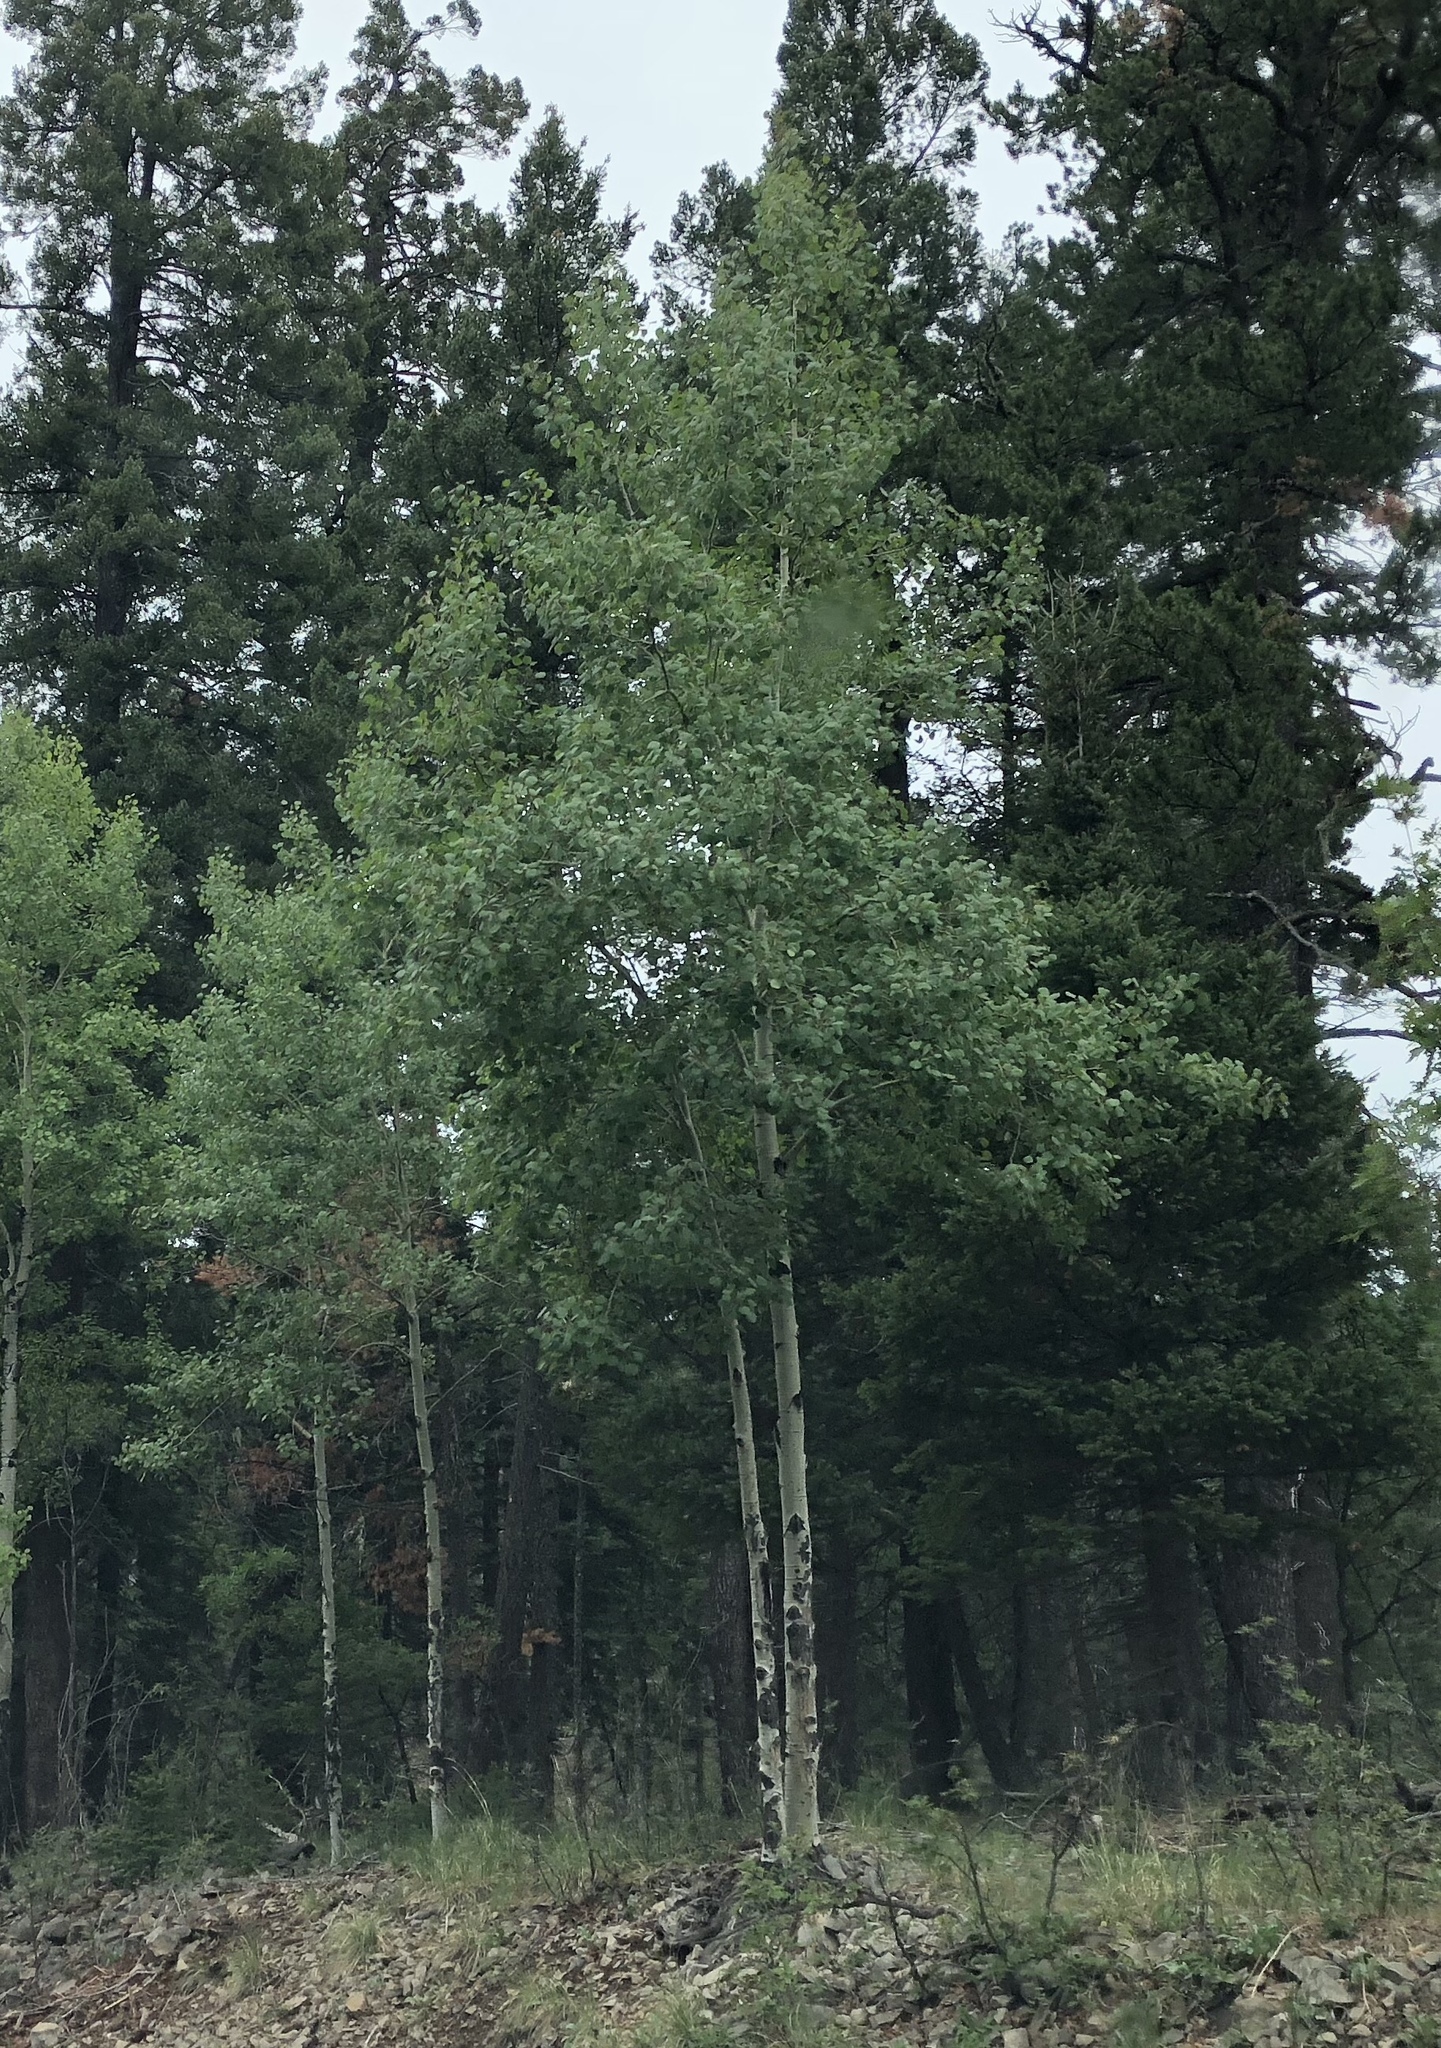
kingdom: Plantae
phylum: Tracheophyta
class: Magnoliopsida
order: Malpighiales
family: Salicaceae
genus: Populus
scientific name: Populus tremuloides
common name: Quaking aspen
